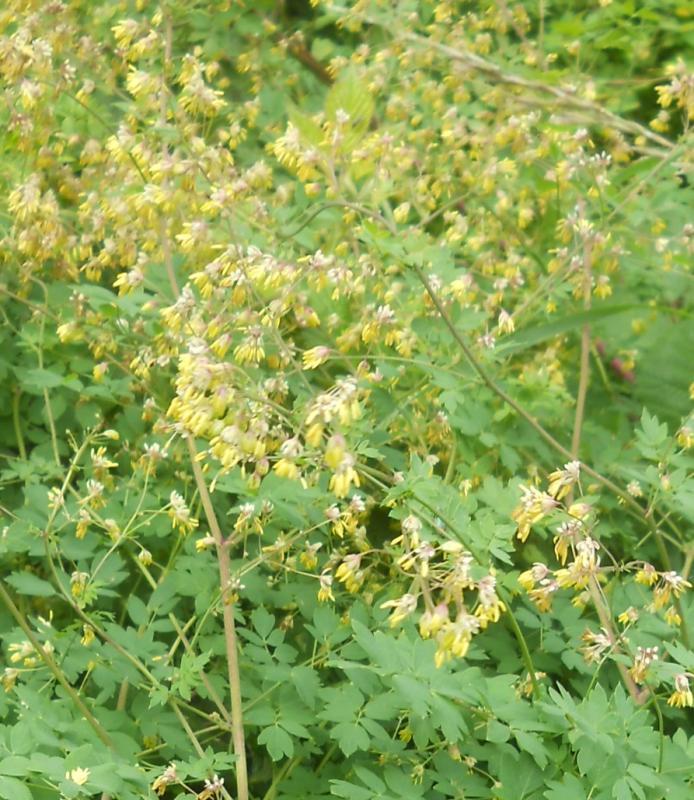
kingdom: Plantae
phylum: Tracheophyta
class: Magnoliopsida
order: Ranunculales
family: Ranunculaceae
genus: Thalictrum
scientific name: Thalictrum minus
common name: Lesser meadow-rue
